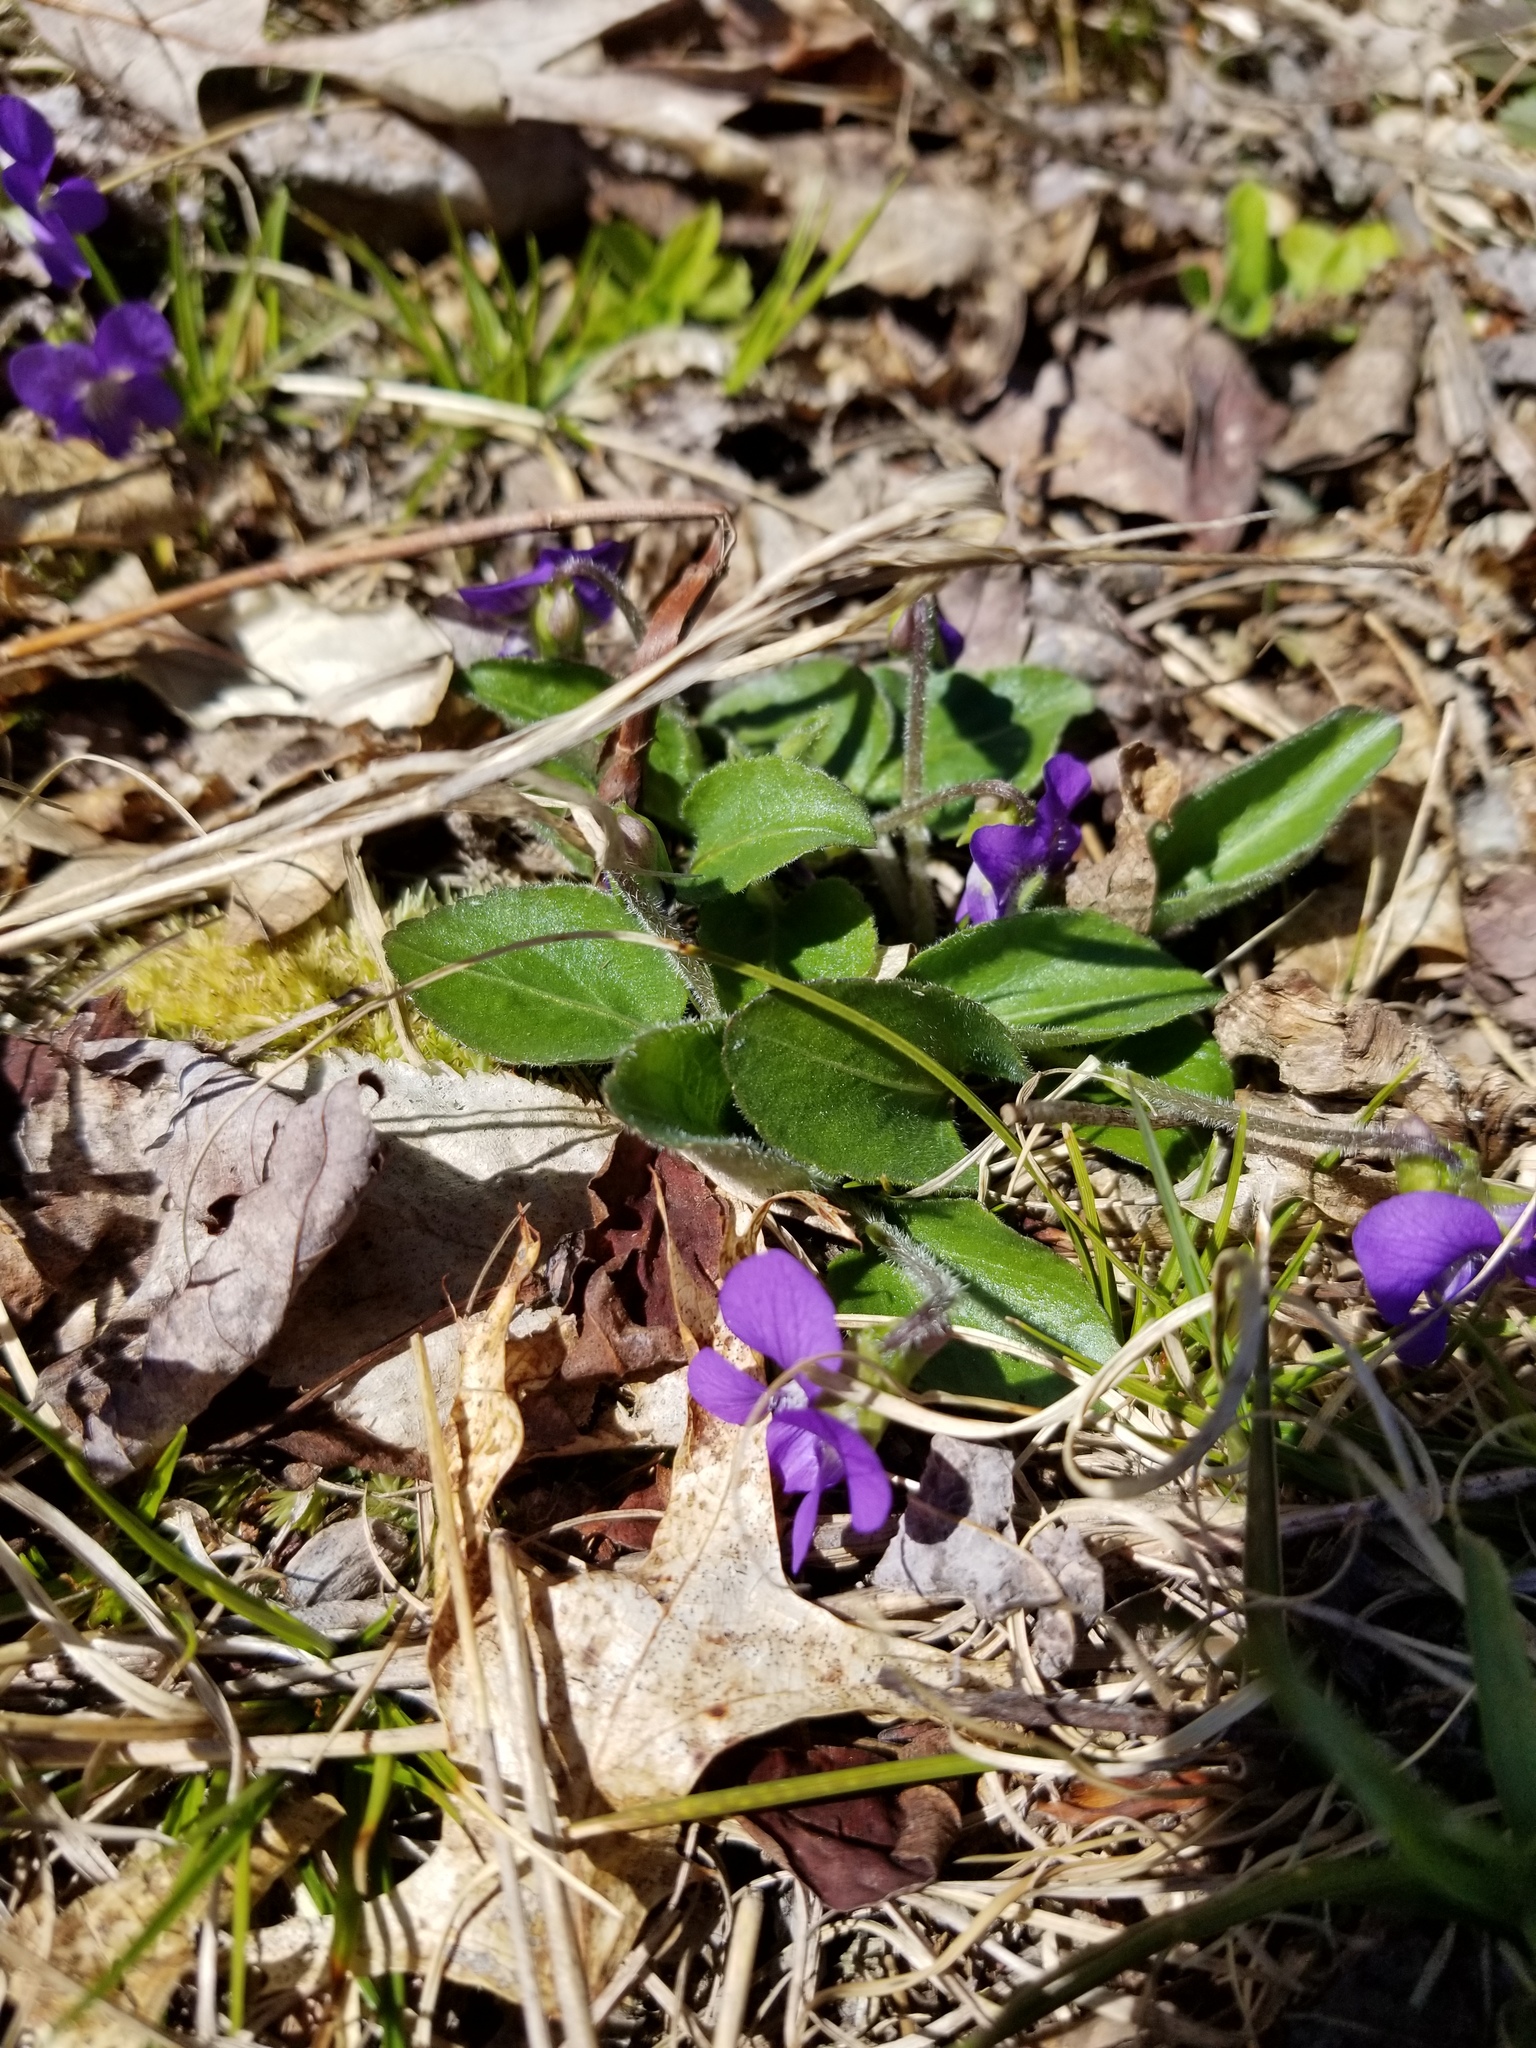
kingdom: Plantae
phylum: Tracheophyta
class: Magnoliopsida
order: Malpighiales
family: Violaceae
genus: Viola
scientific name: Viola fimbriatula
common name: Sand violet
